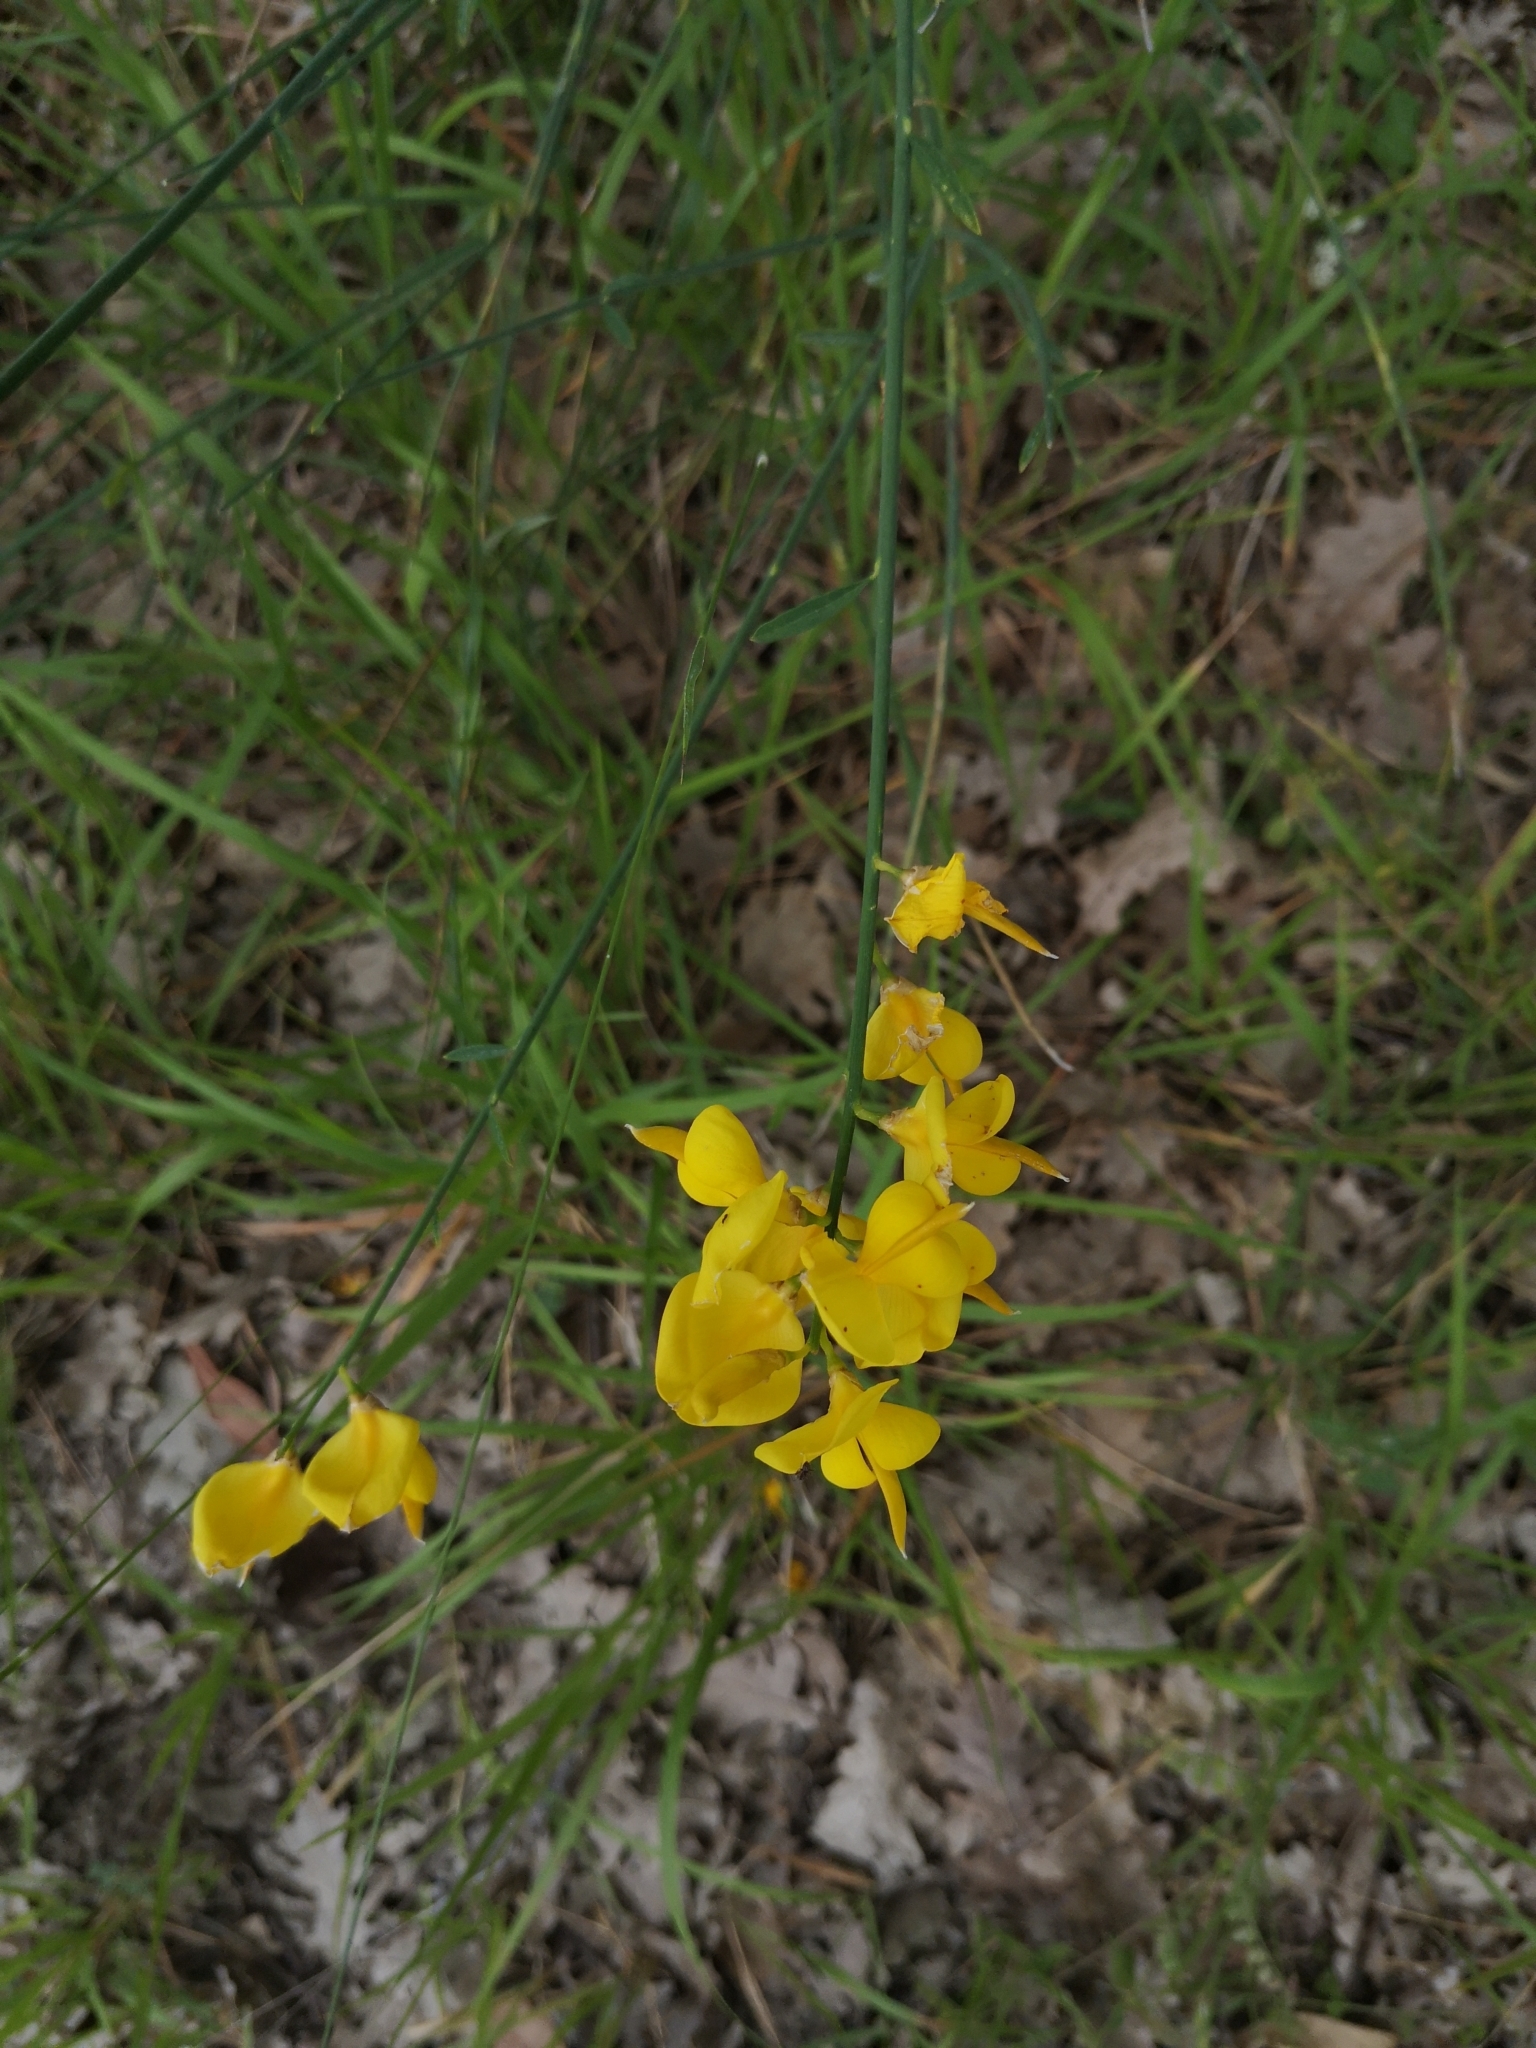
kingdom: Plantae
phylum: Tracheophyta
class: Magnoliopsida
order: Fabales
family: Fabaceae
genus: Spartium
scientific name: Spartium junceum
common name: Spanish broom
